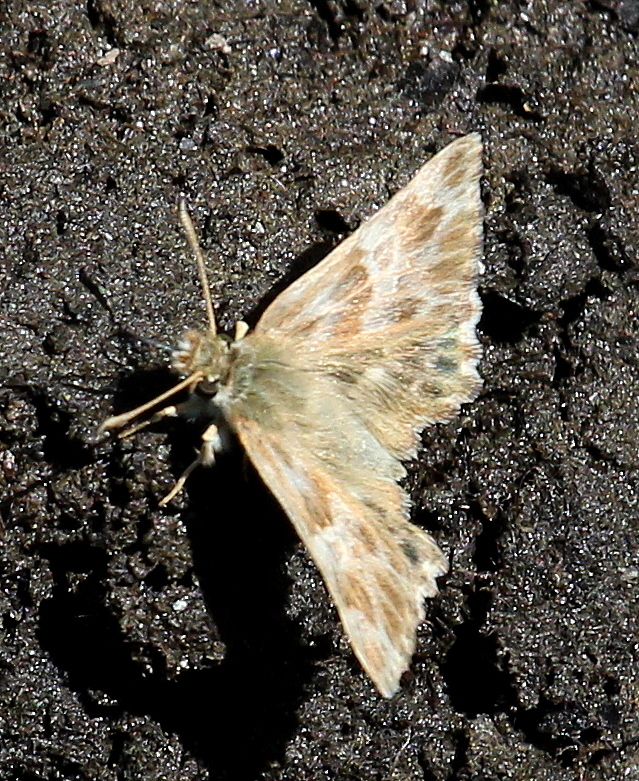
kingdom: Animalia
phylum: Arthropoda
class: Insecta
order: Lepidoptera
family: Hesperiidae
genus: Syrichtus
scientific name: Syrichtus Muschampia baeticus
